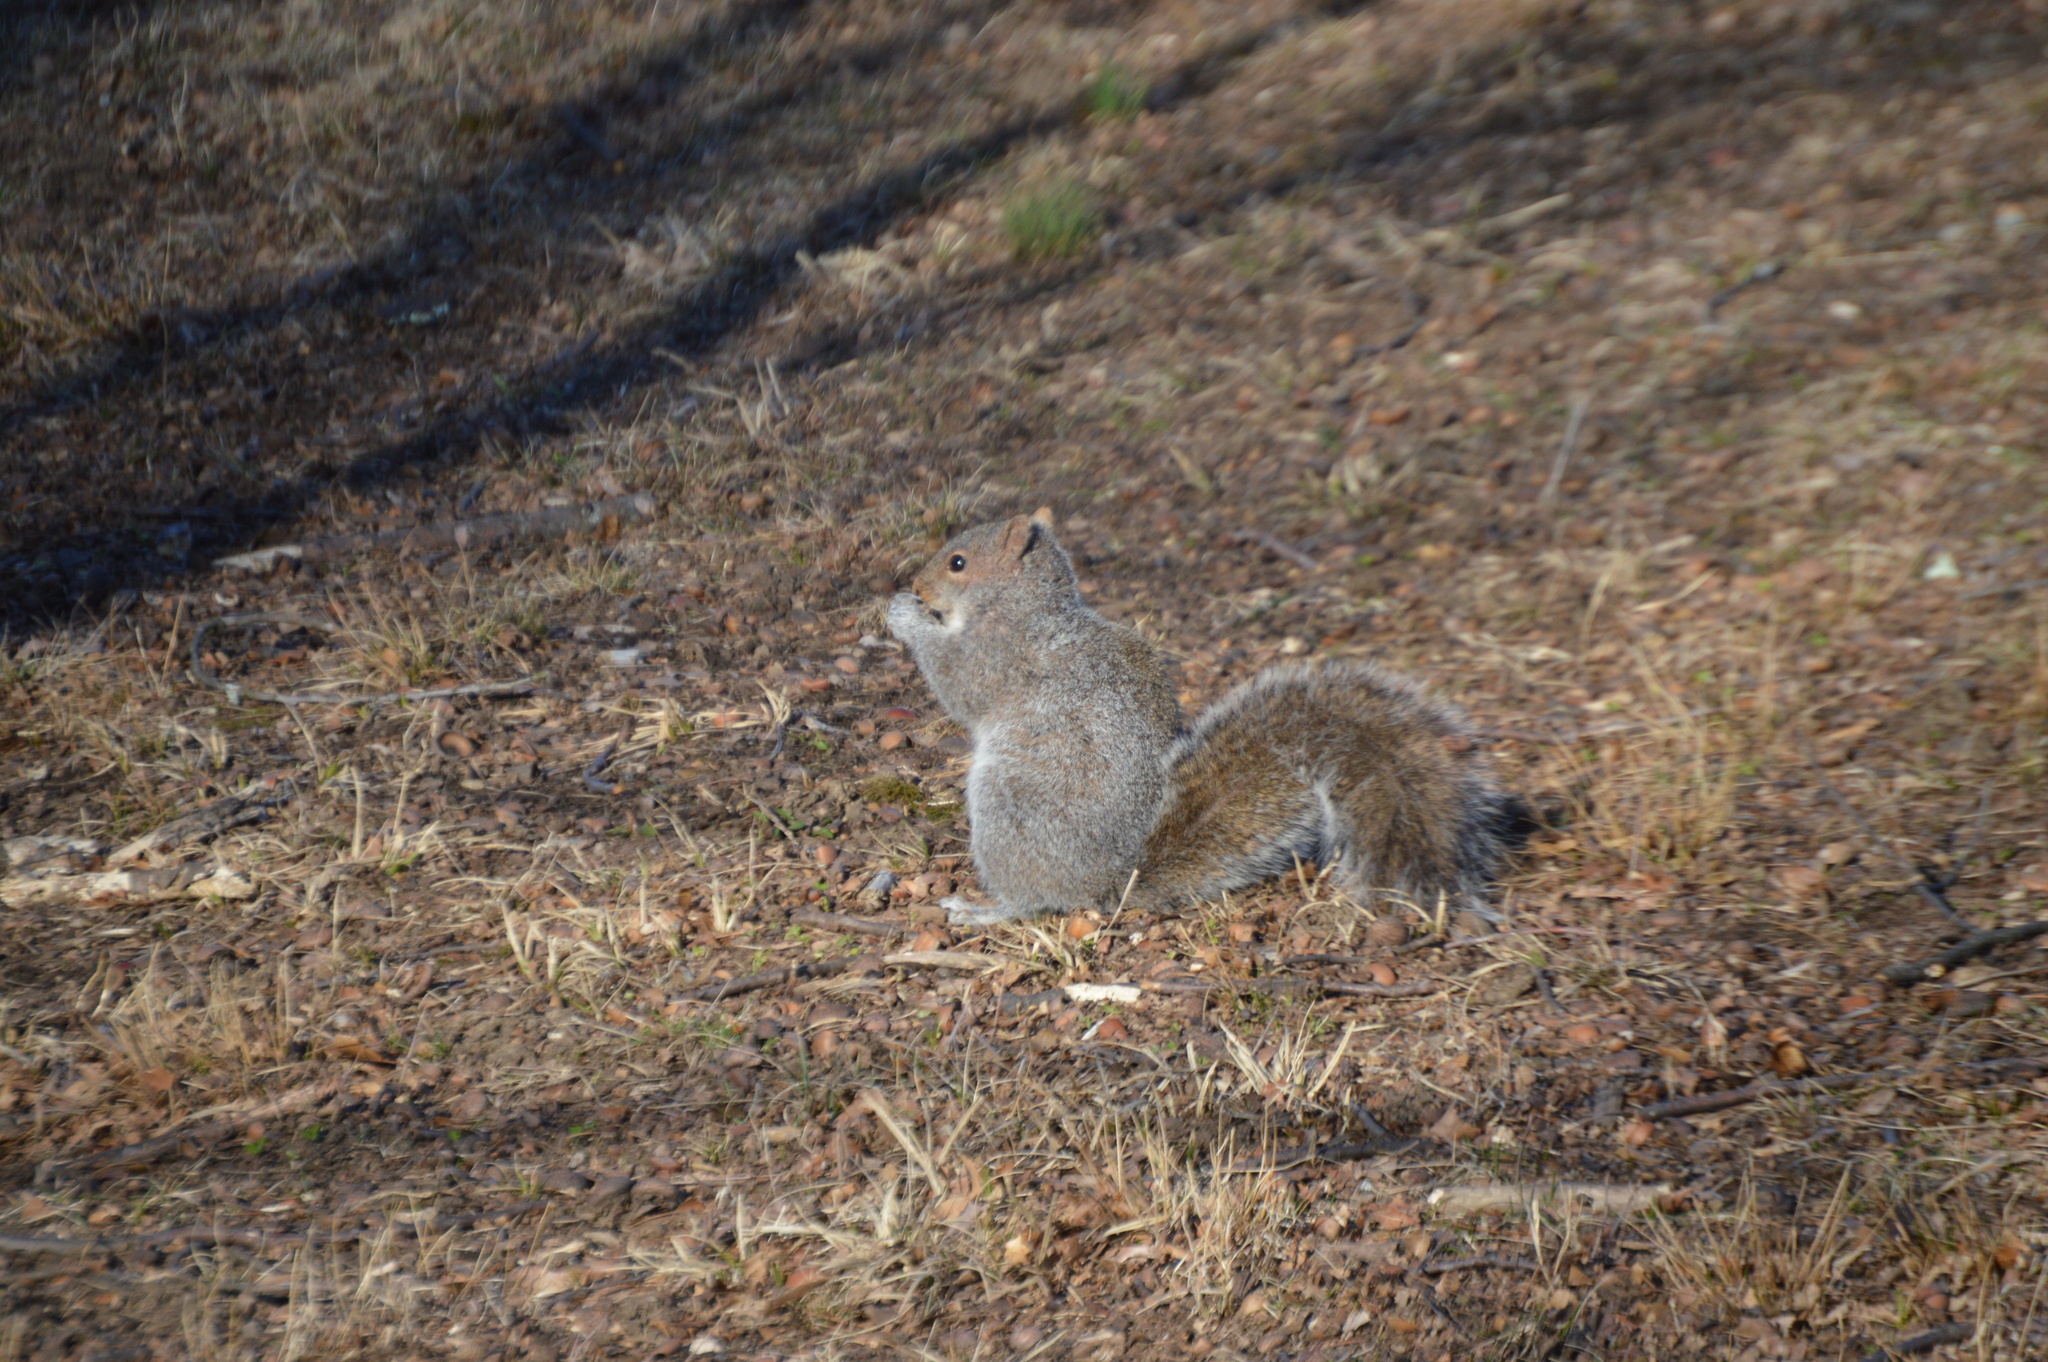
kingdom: Animalia
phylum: Chordata
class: Mammalia
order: Rodentia
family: Sciuridae
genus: Sciurus
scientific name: Sciurus carolinensis
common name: Eastern gray squirrel
